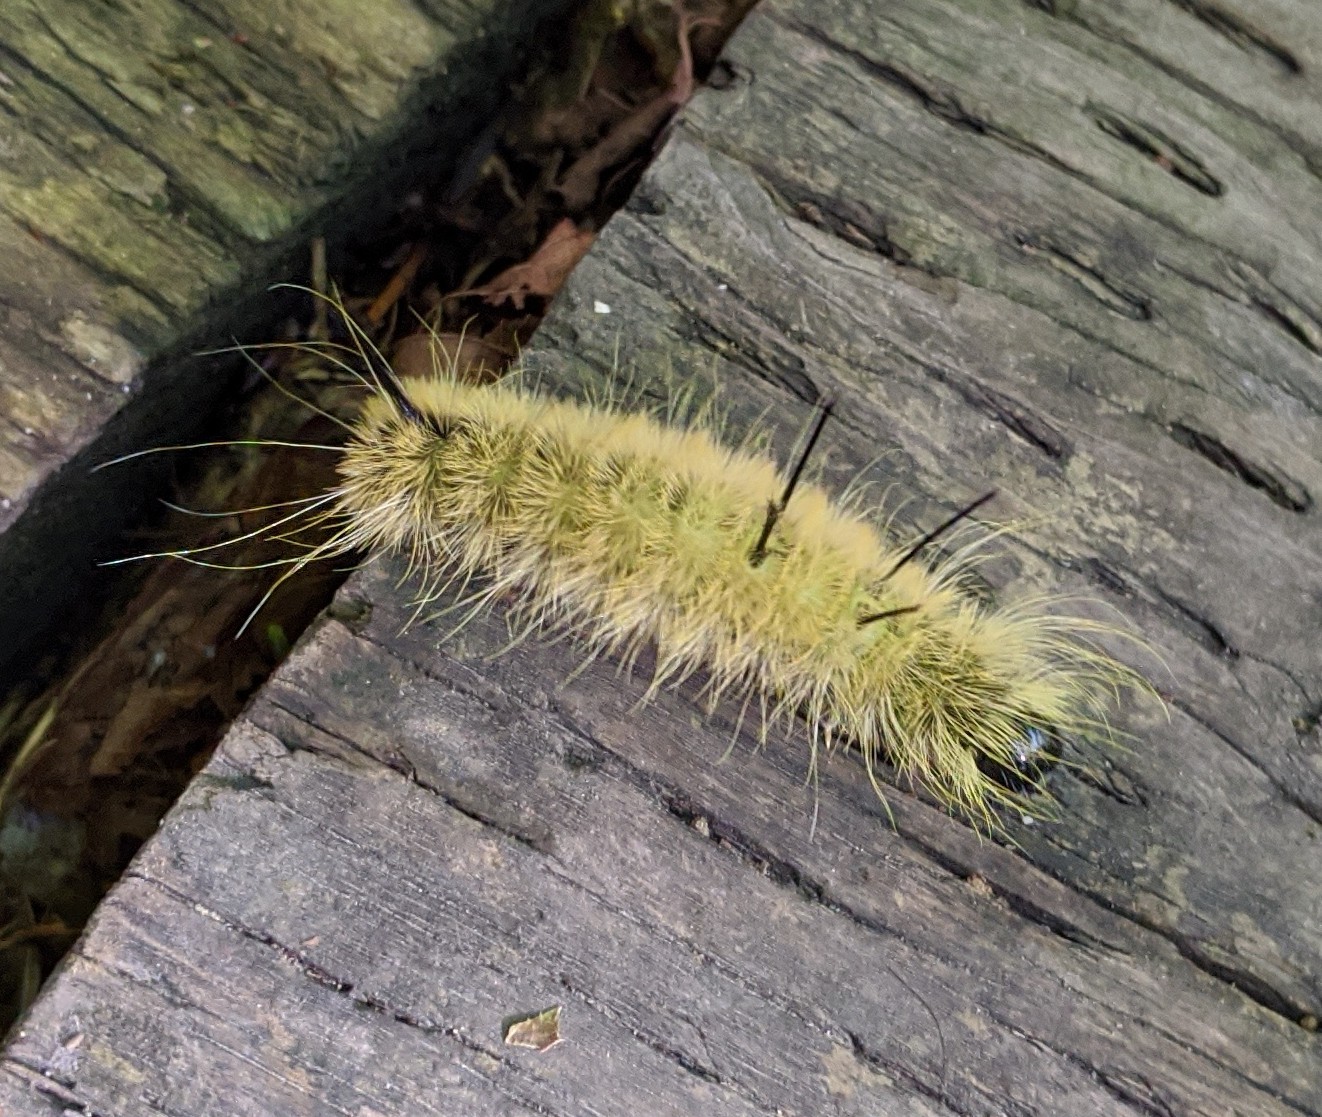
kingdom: Animalia
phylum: Arthropoda
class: Insecta
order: Lepidoptera
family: Noctuidae
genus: Acronicta
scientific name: Acronicta americana
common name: American dagger
